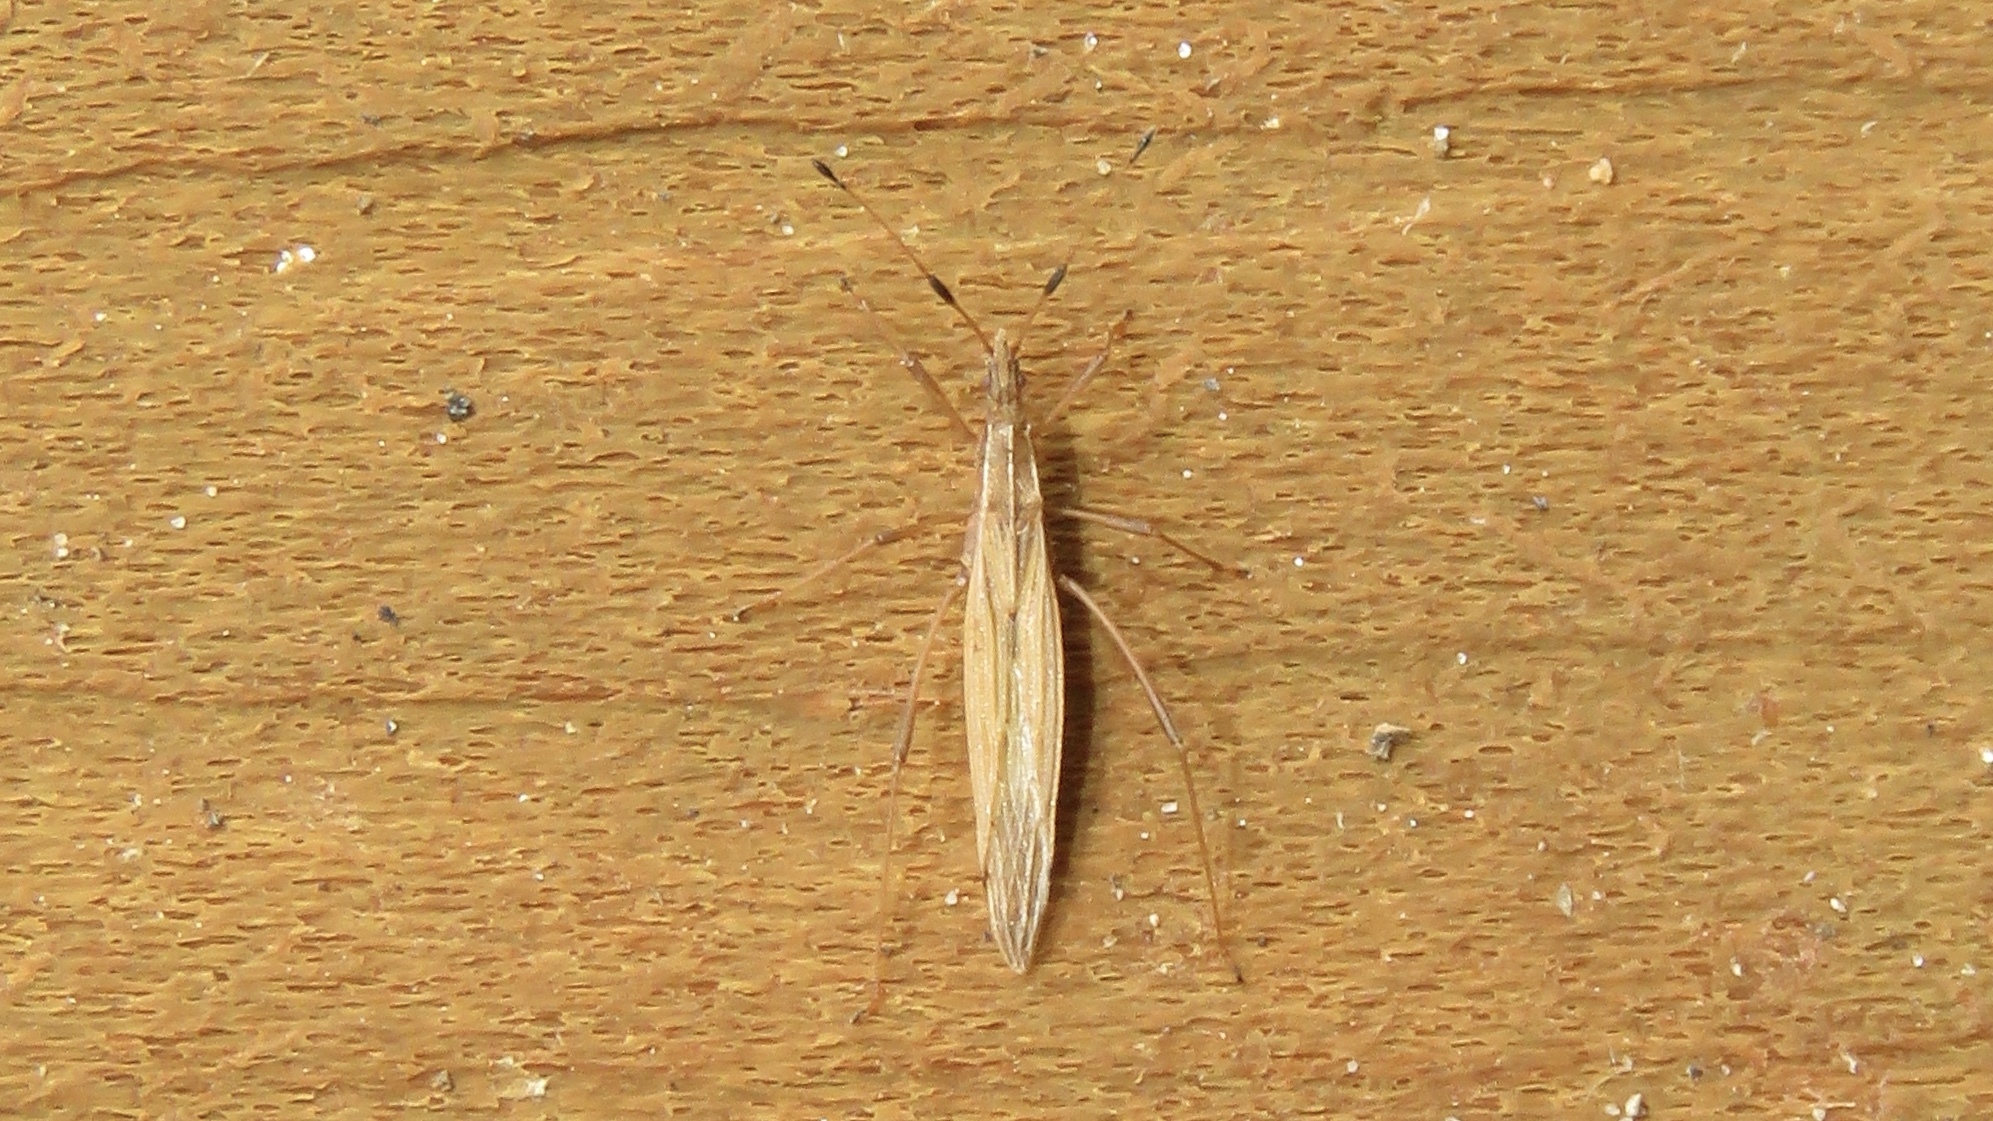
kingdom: Animalia
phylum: Arthropoda
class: Insecta
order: Hemiptera
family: Berytidae
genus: Berytinus
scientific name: Berytinus minor
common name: Stilt bug
